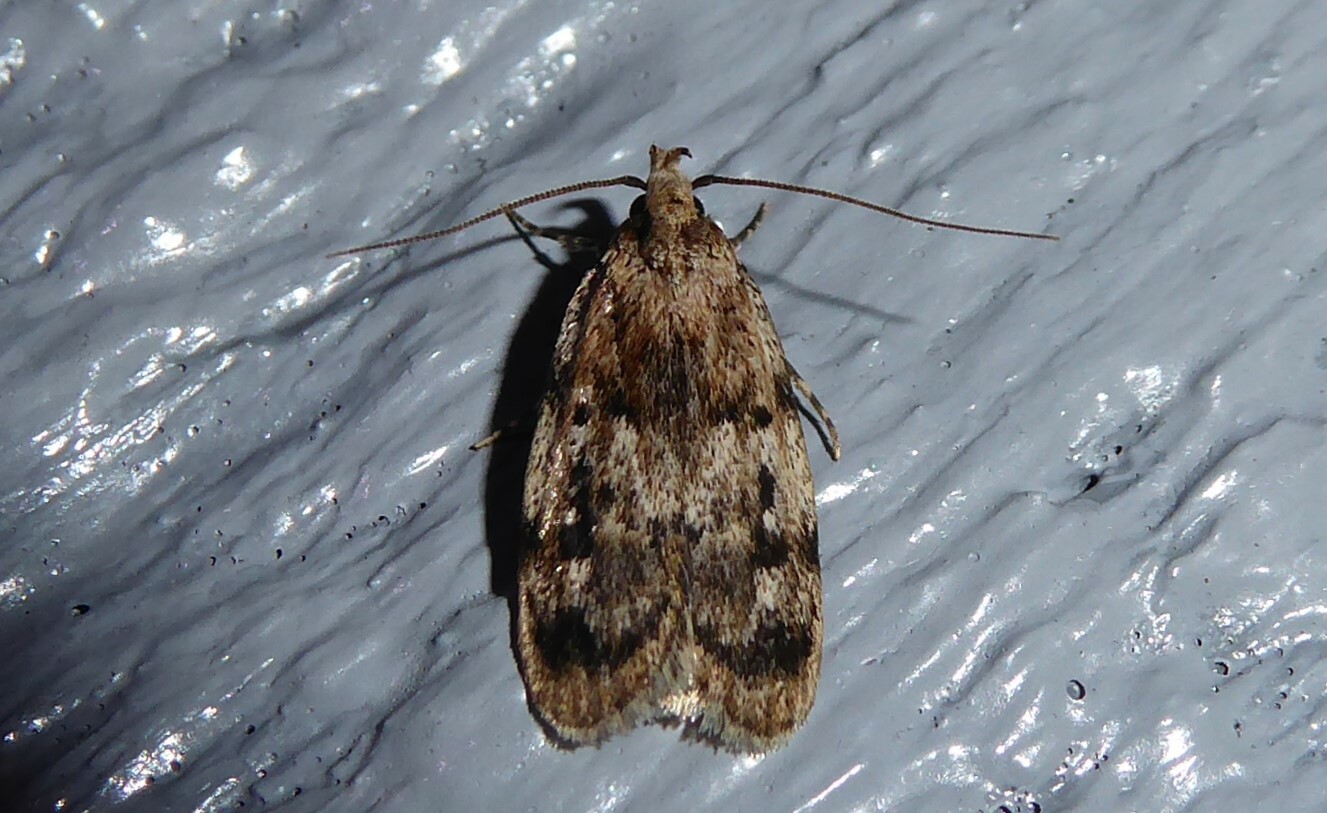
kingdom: Animalia
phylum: Arthropoda
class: Insecta
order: Lepidoptera
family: Oecophoridae
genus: Barea
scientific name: Barea exarcha
